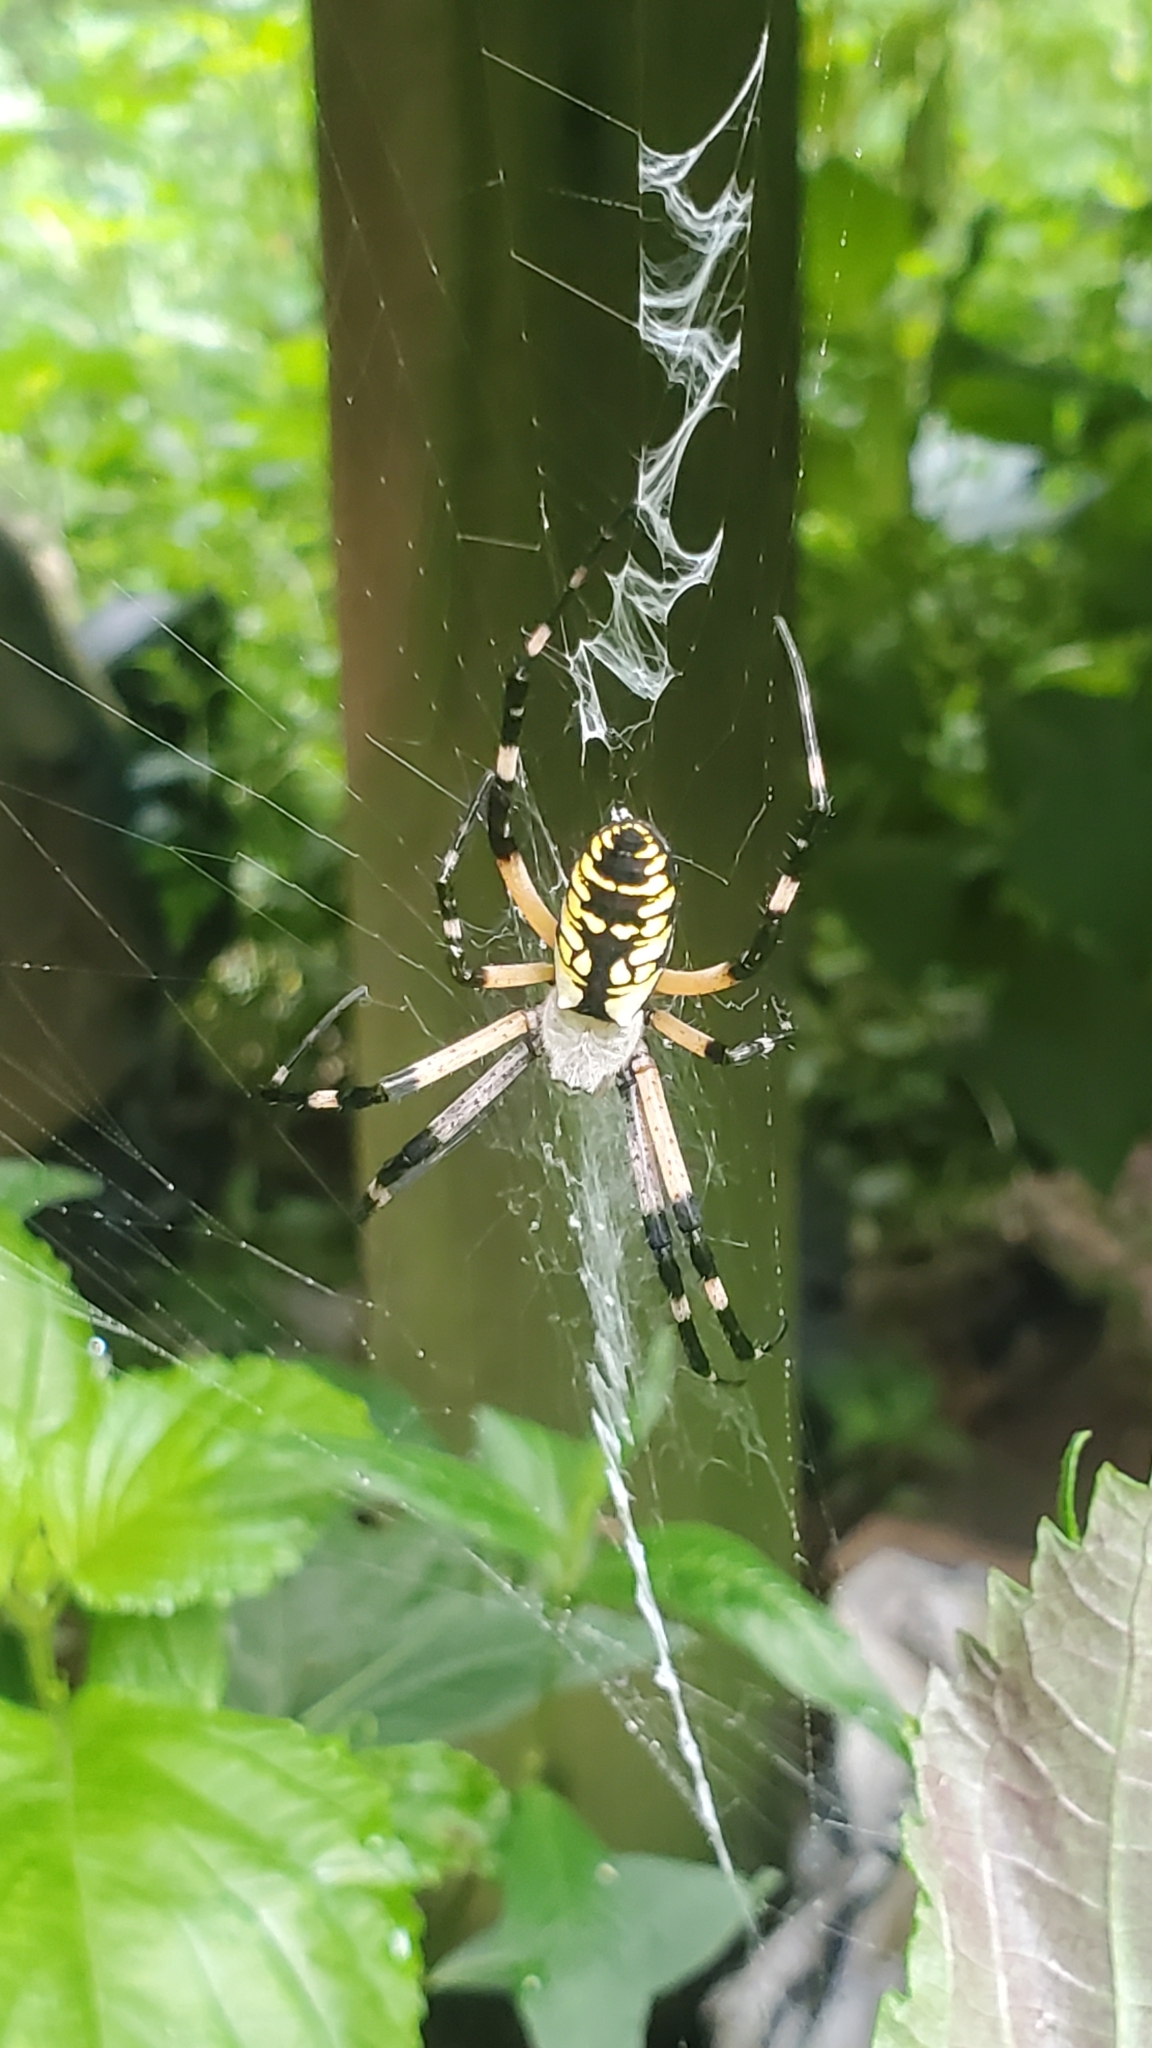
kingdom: Animalia
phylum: Arthropoda
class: Arachnida
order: Araneae
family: Araneidae
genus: Argiope
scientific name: Argiope aurantia
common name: Orb weavers
